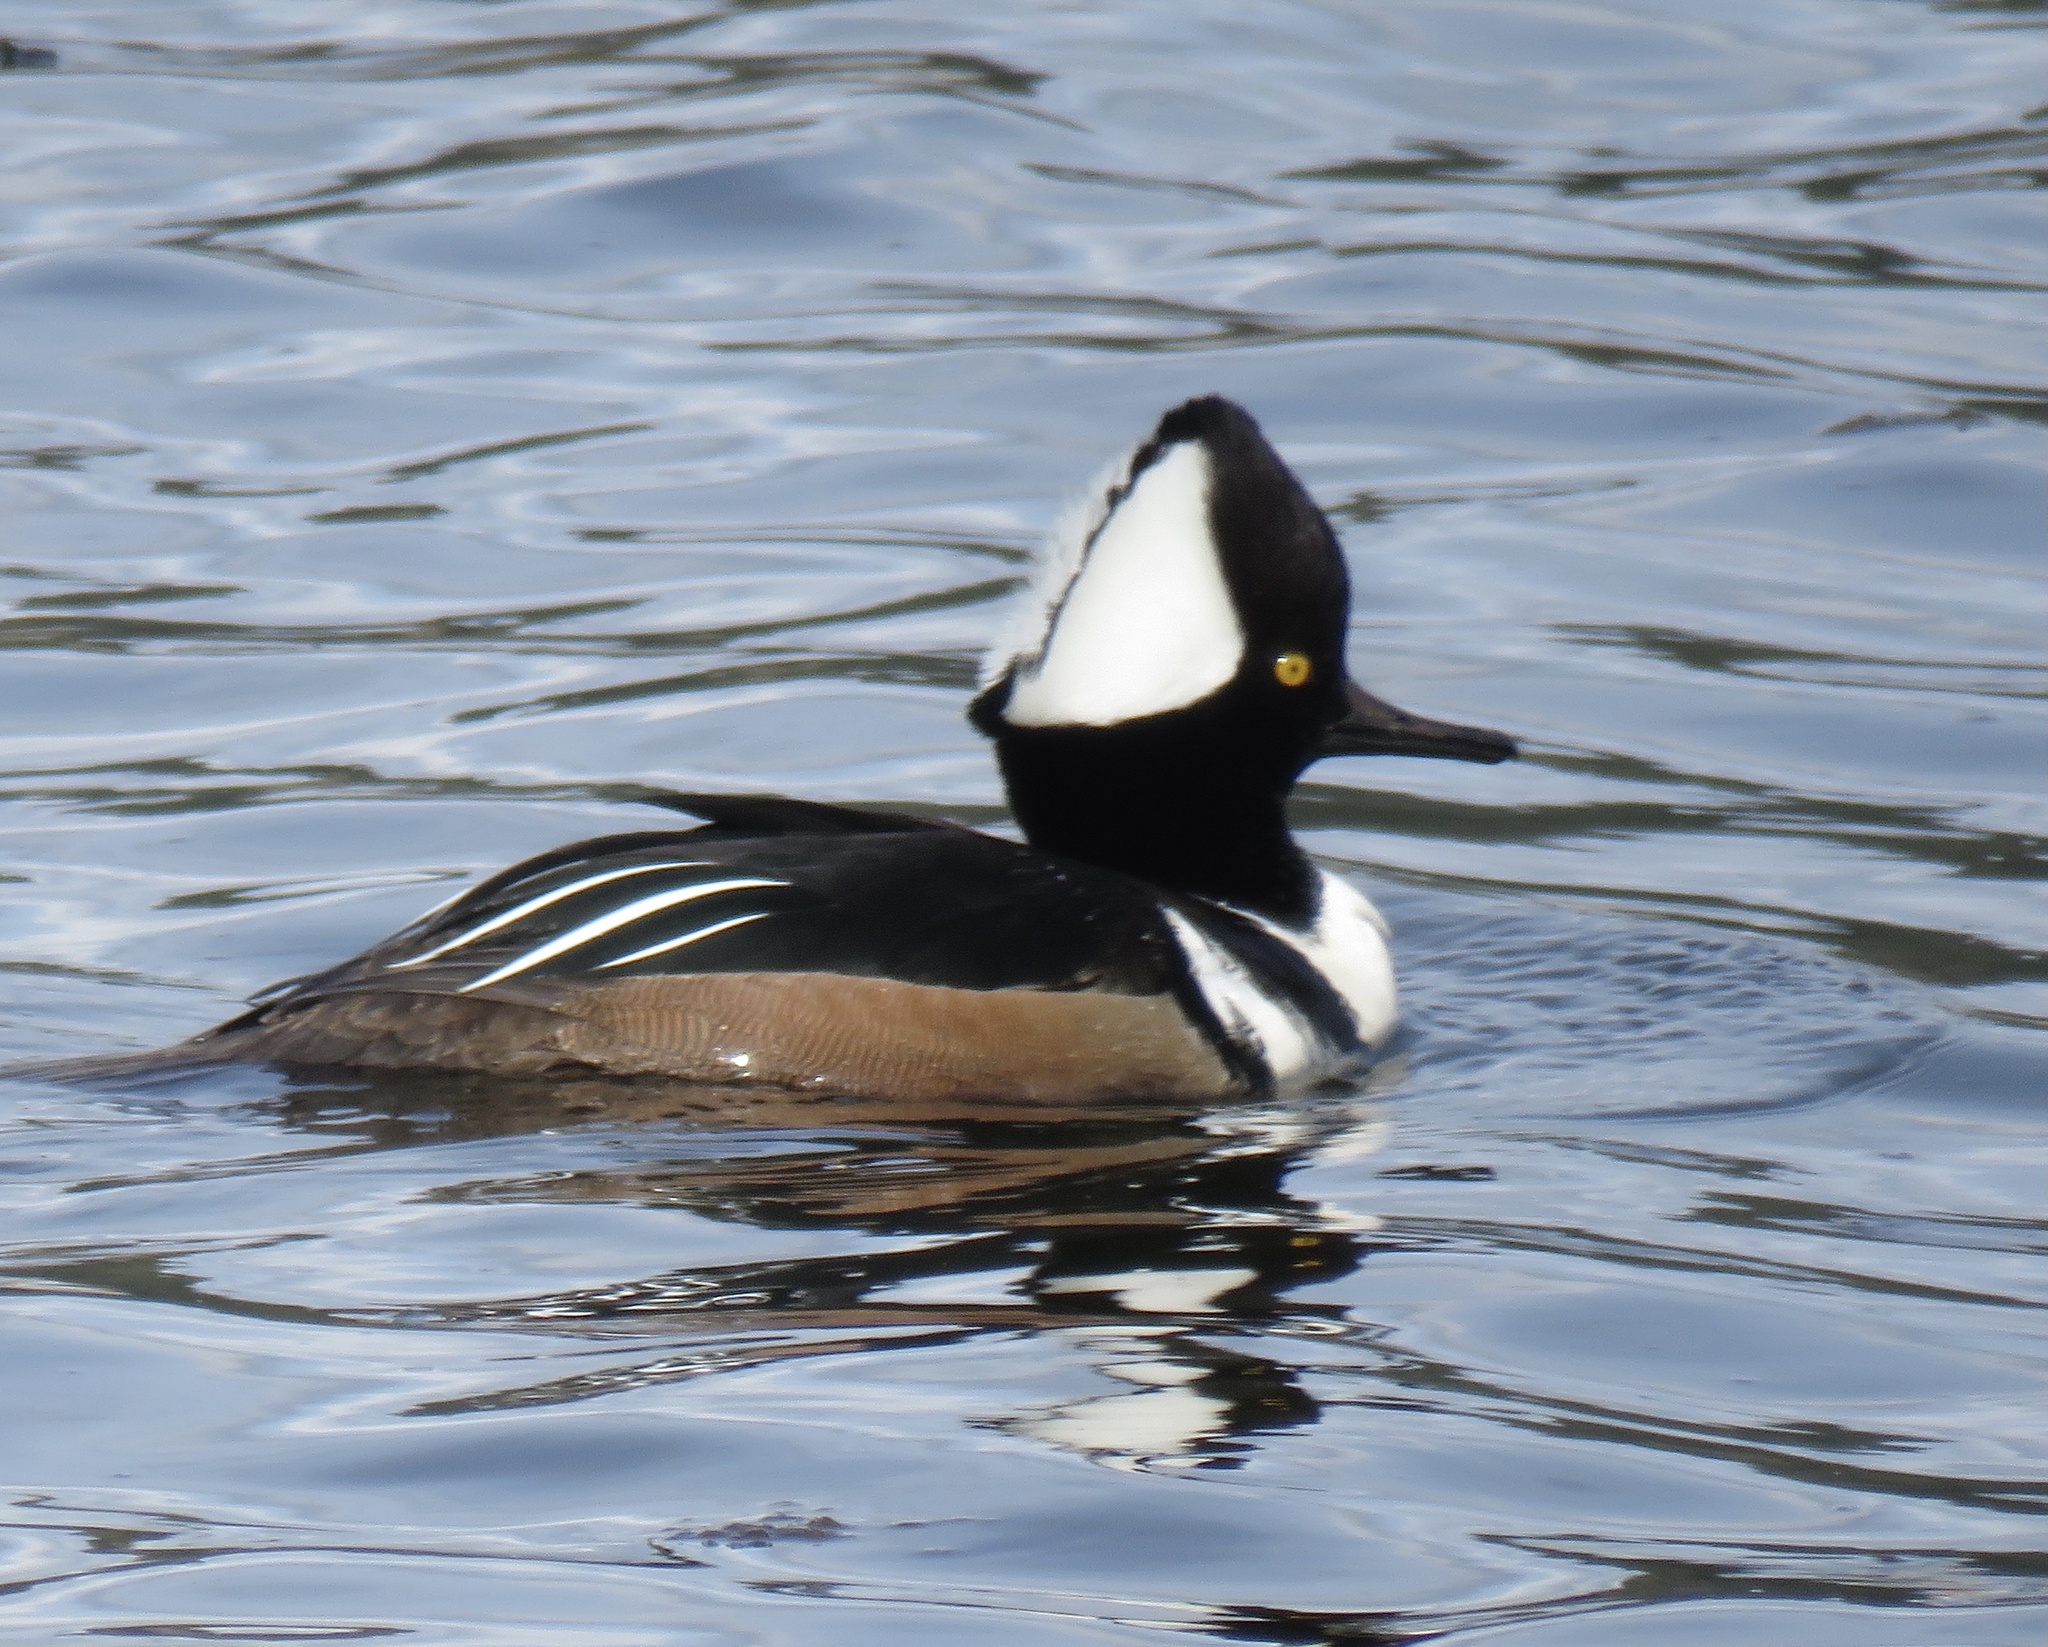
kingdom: Animalia
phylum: Chordata
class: Aves
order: Anseriformes
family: Anatidae
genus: Lophodytes
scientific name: Lophodytes cucullatus
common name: Hooded merganser
